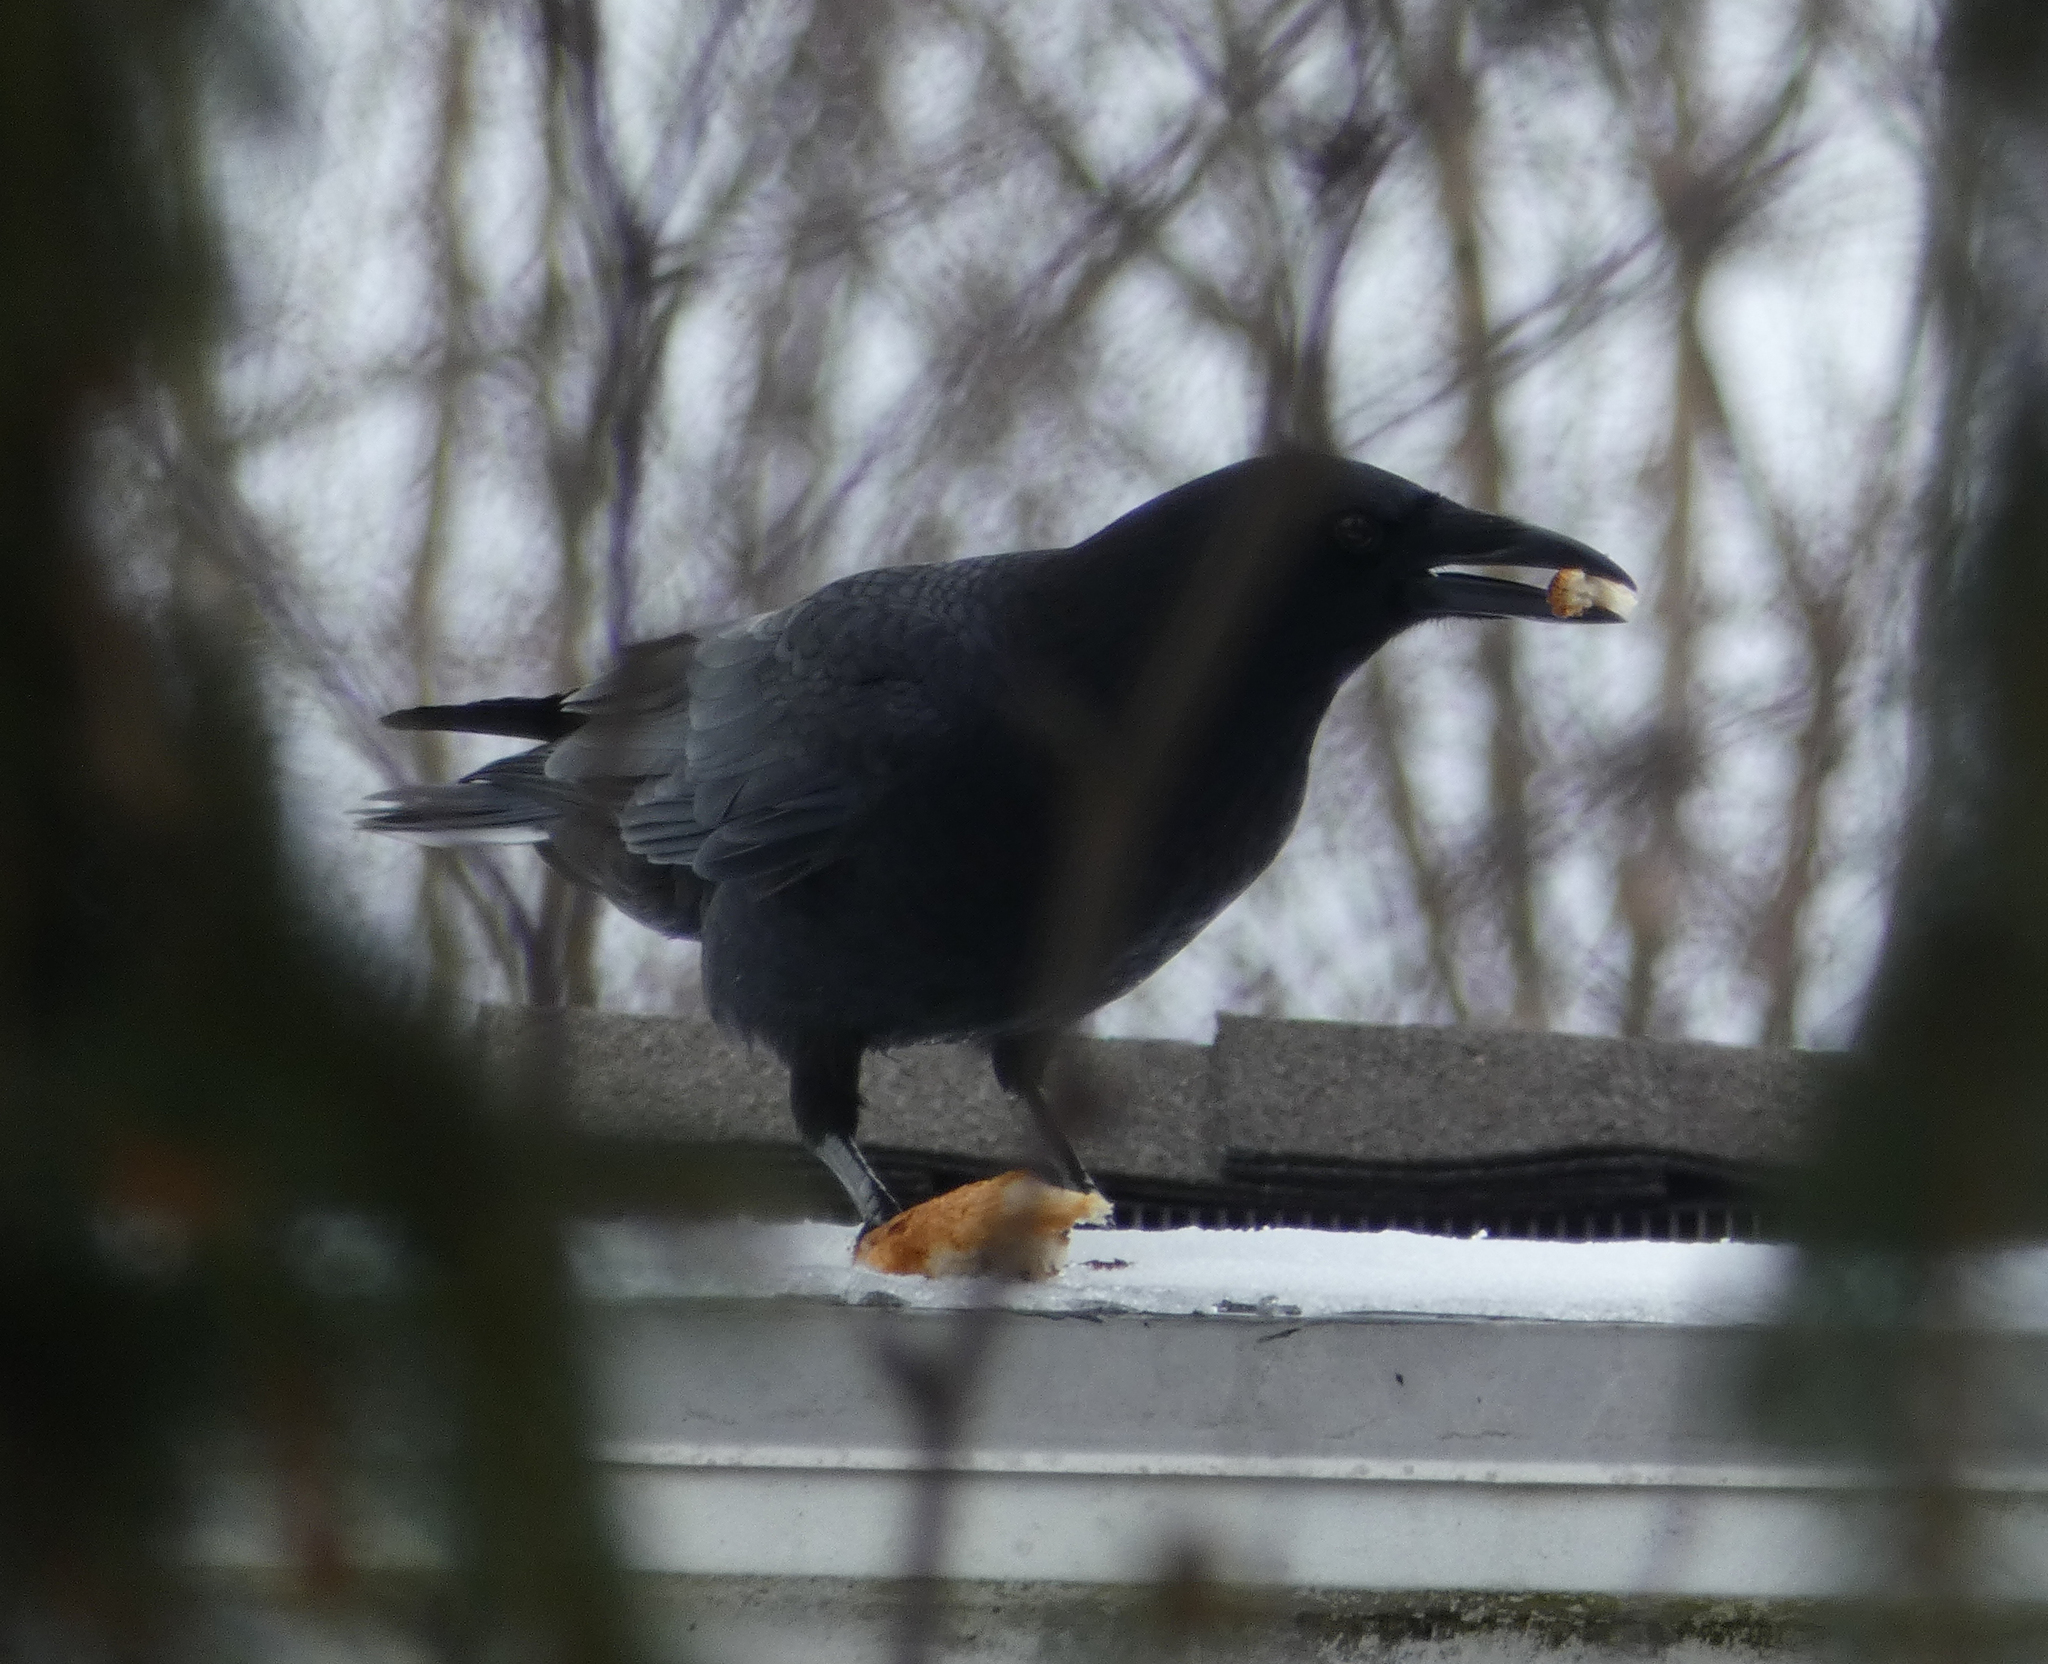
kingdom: Animalia
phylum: Chordata
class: Aves
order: Passeriformes
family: Corvidae
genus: Corvus
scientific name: Corvus brachyrhynchos
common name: American crow
